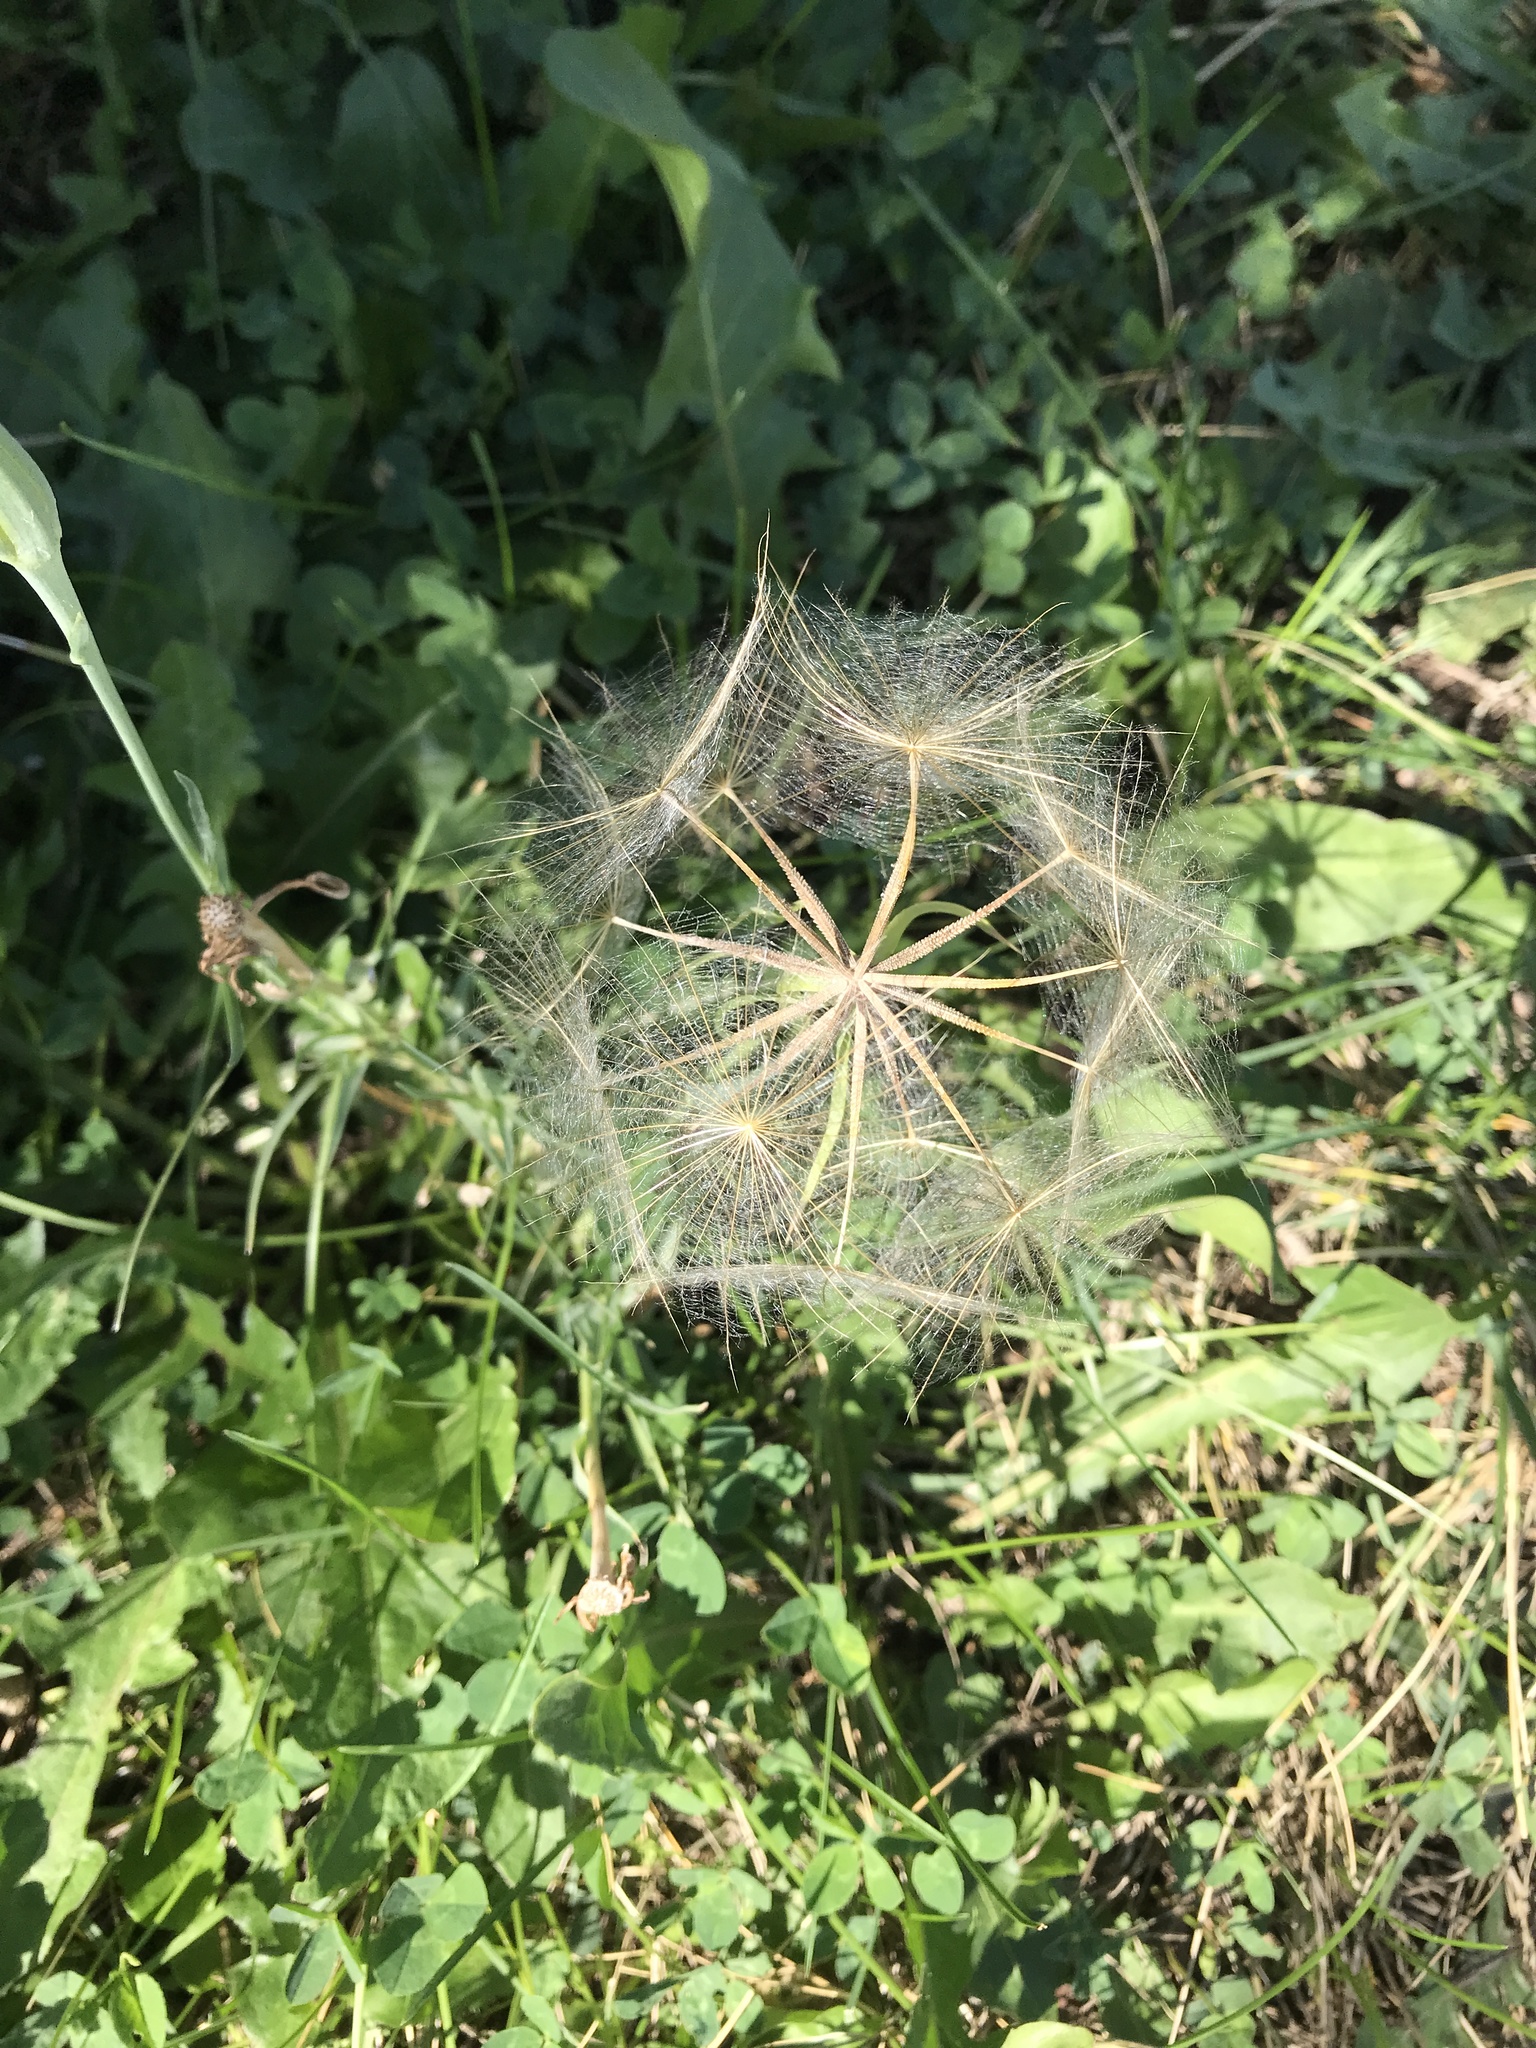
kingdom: Plantae
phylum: Tracheophyta
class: Magnoliopsida
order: Asterales
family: Asteraceae
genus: Tragopogon
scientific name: Tragopogon dubius
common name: Yellow salsify
